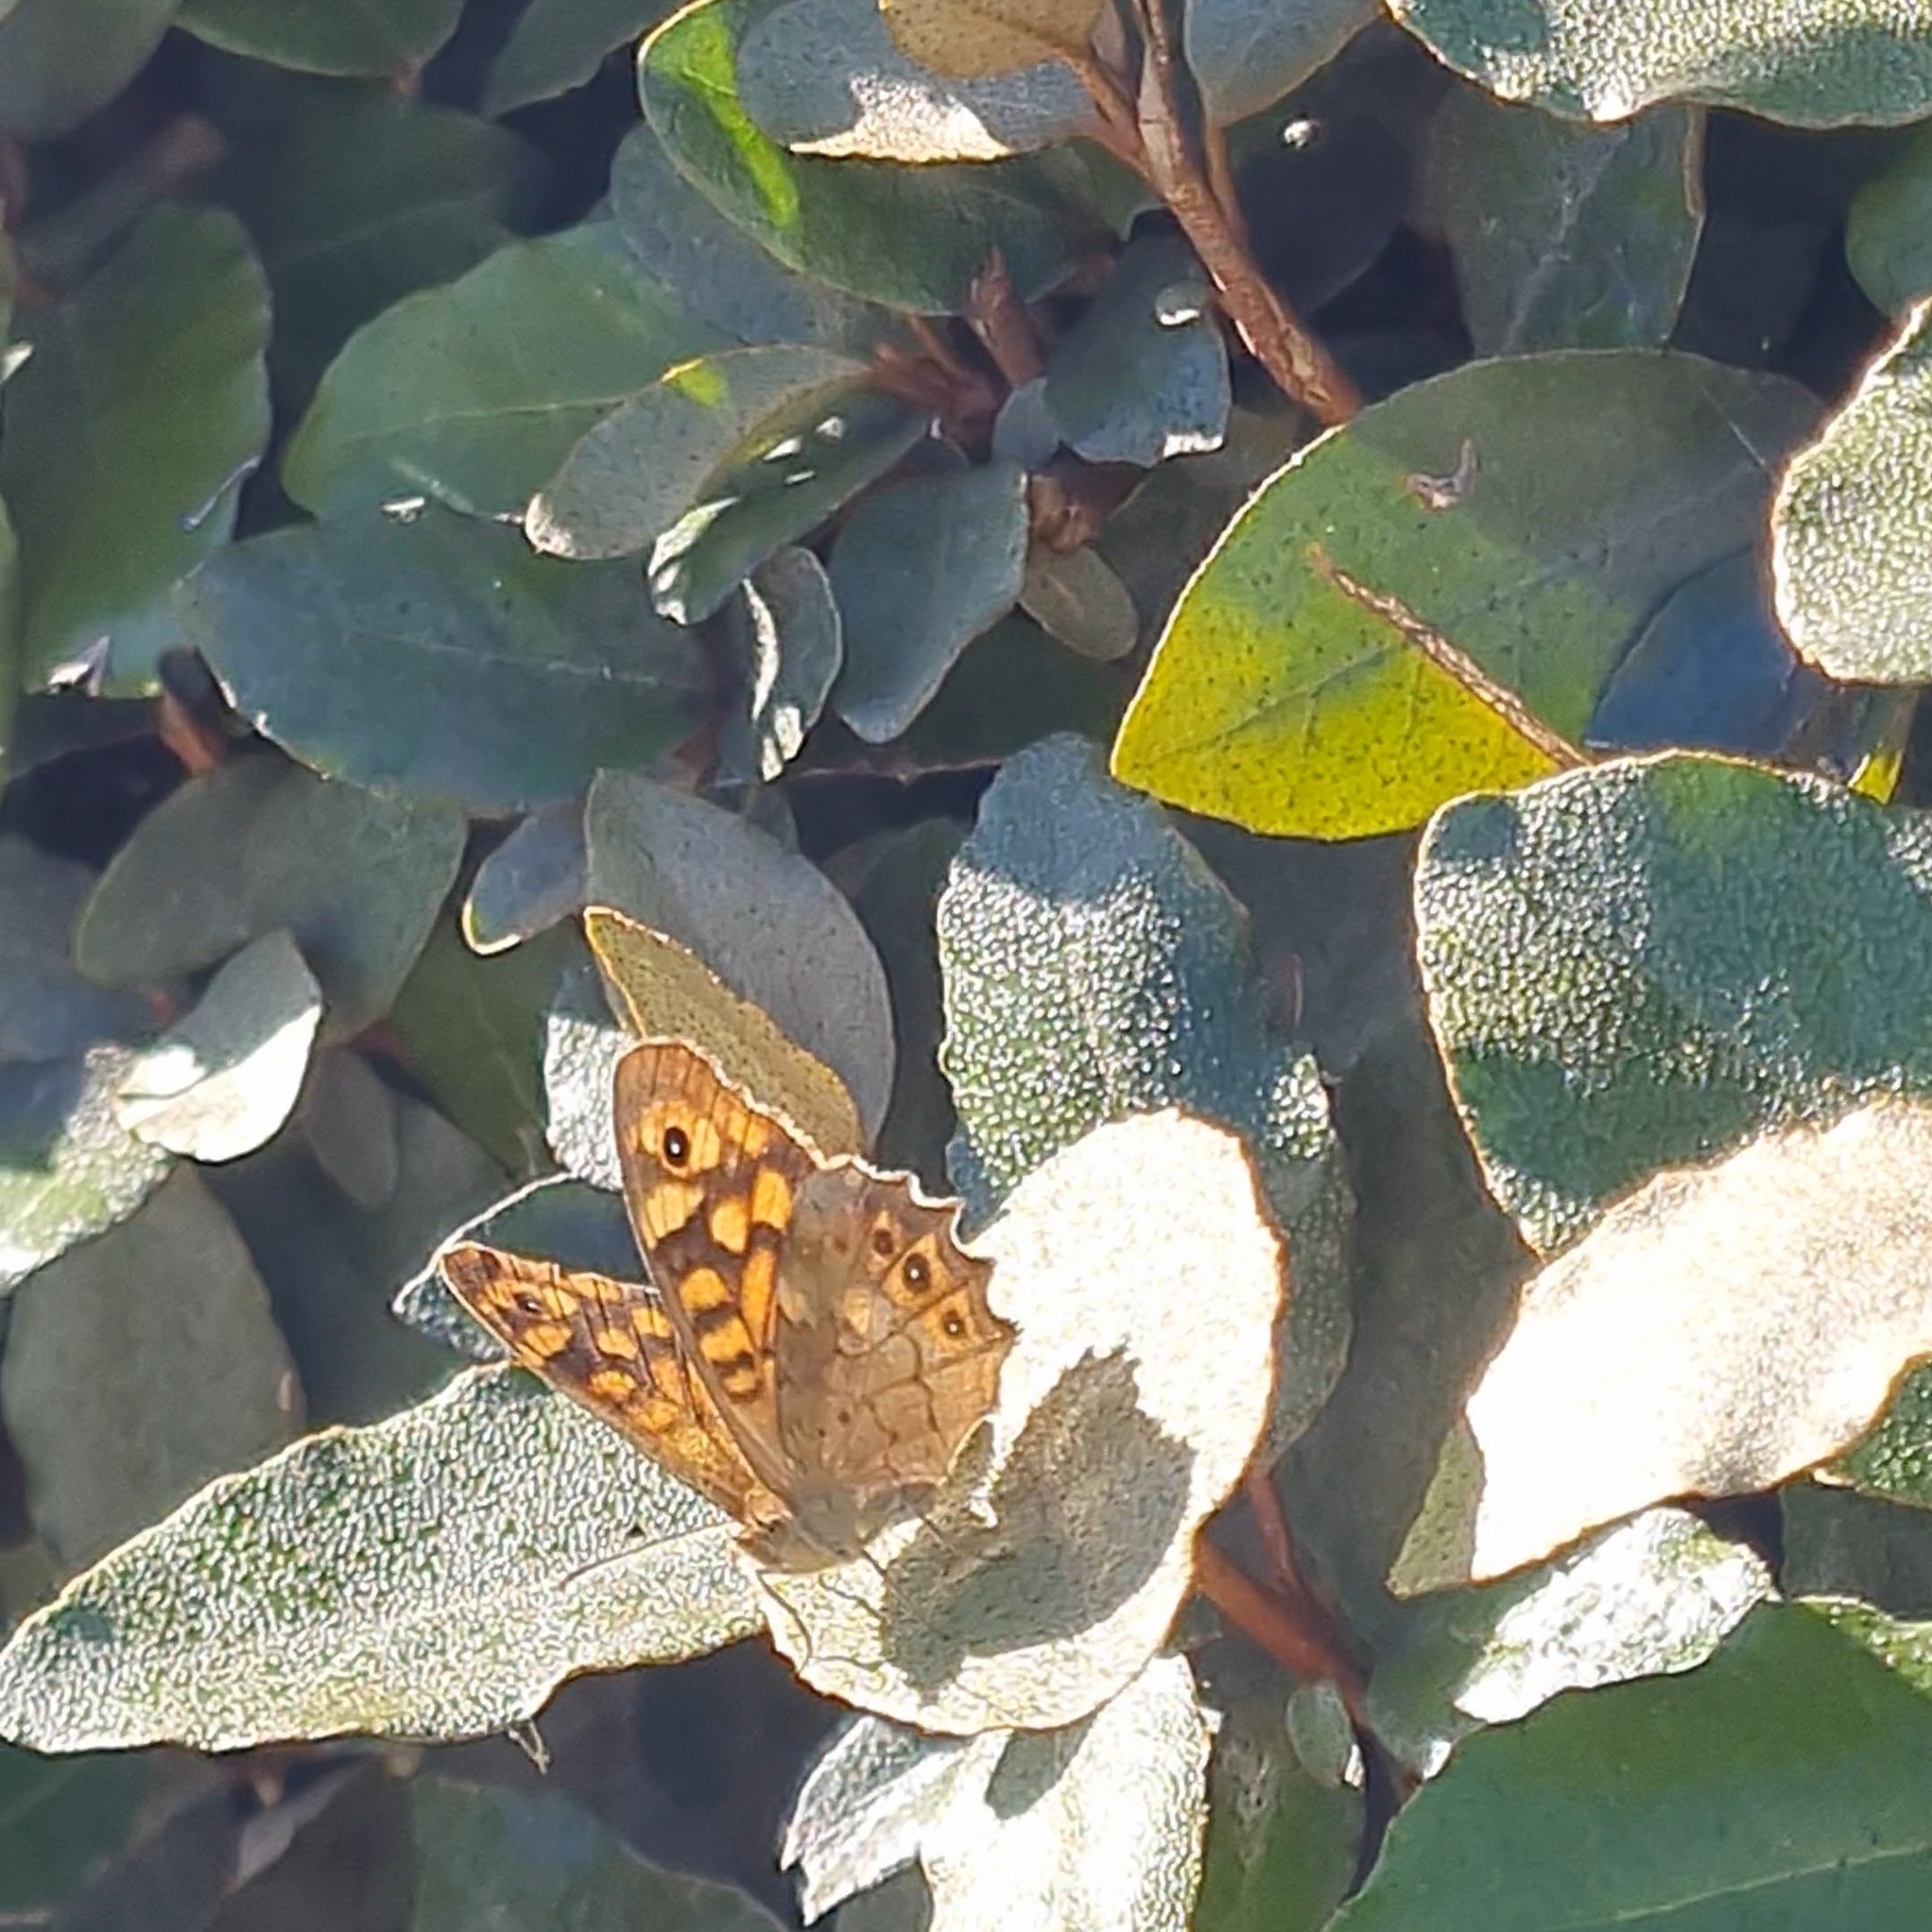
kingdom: Animalia
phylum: Arthropoda
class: Insecta
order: Lepidoptera
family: Nymphalidae
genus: Pararge
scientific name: Pararge aegeria
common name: Speckled wood
